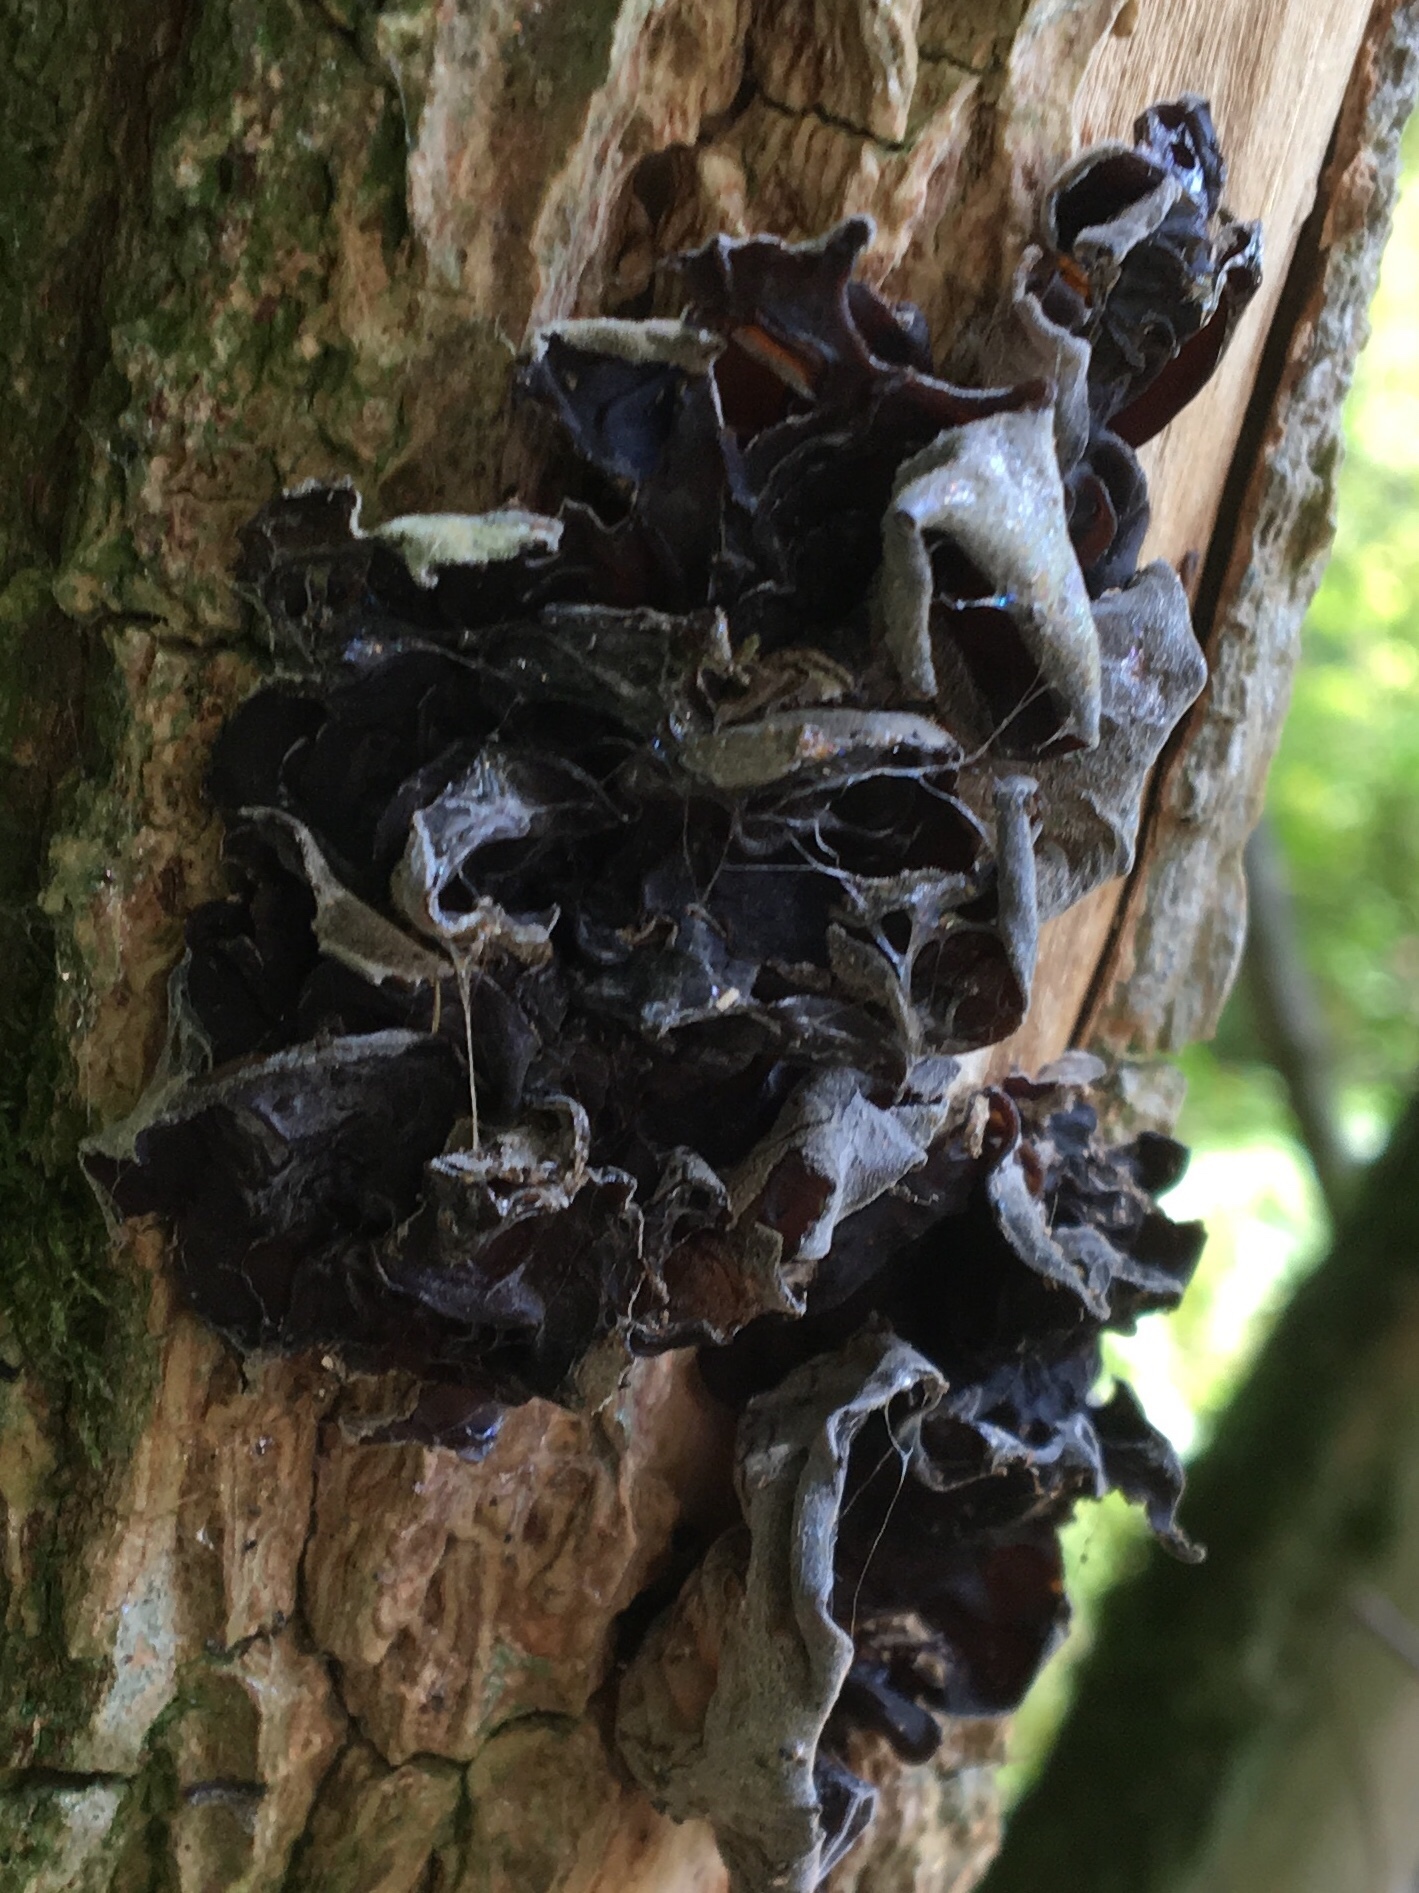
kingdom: Fungi
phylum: Basidiomycota
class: Agaricomycetes
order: Auriculariales
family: Auriculariaceae
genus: Auricularia
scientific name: Auricularia auricula-judae
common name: Jelly ear
